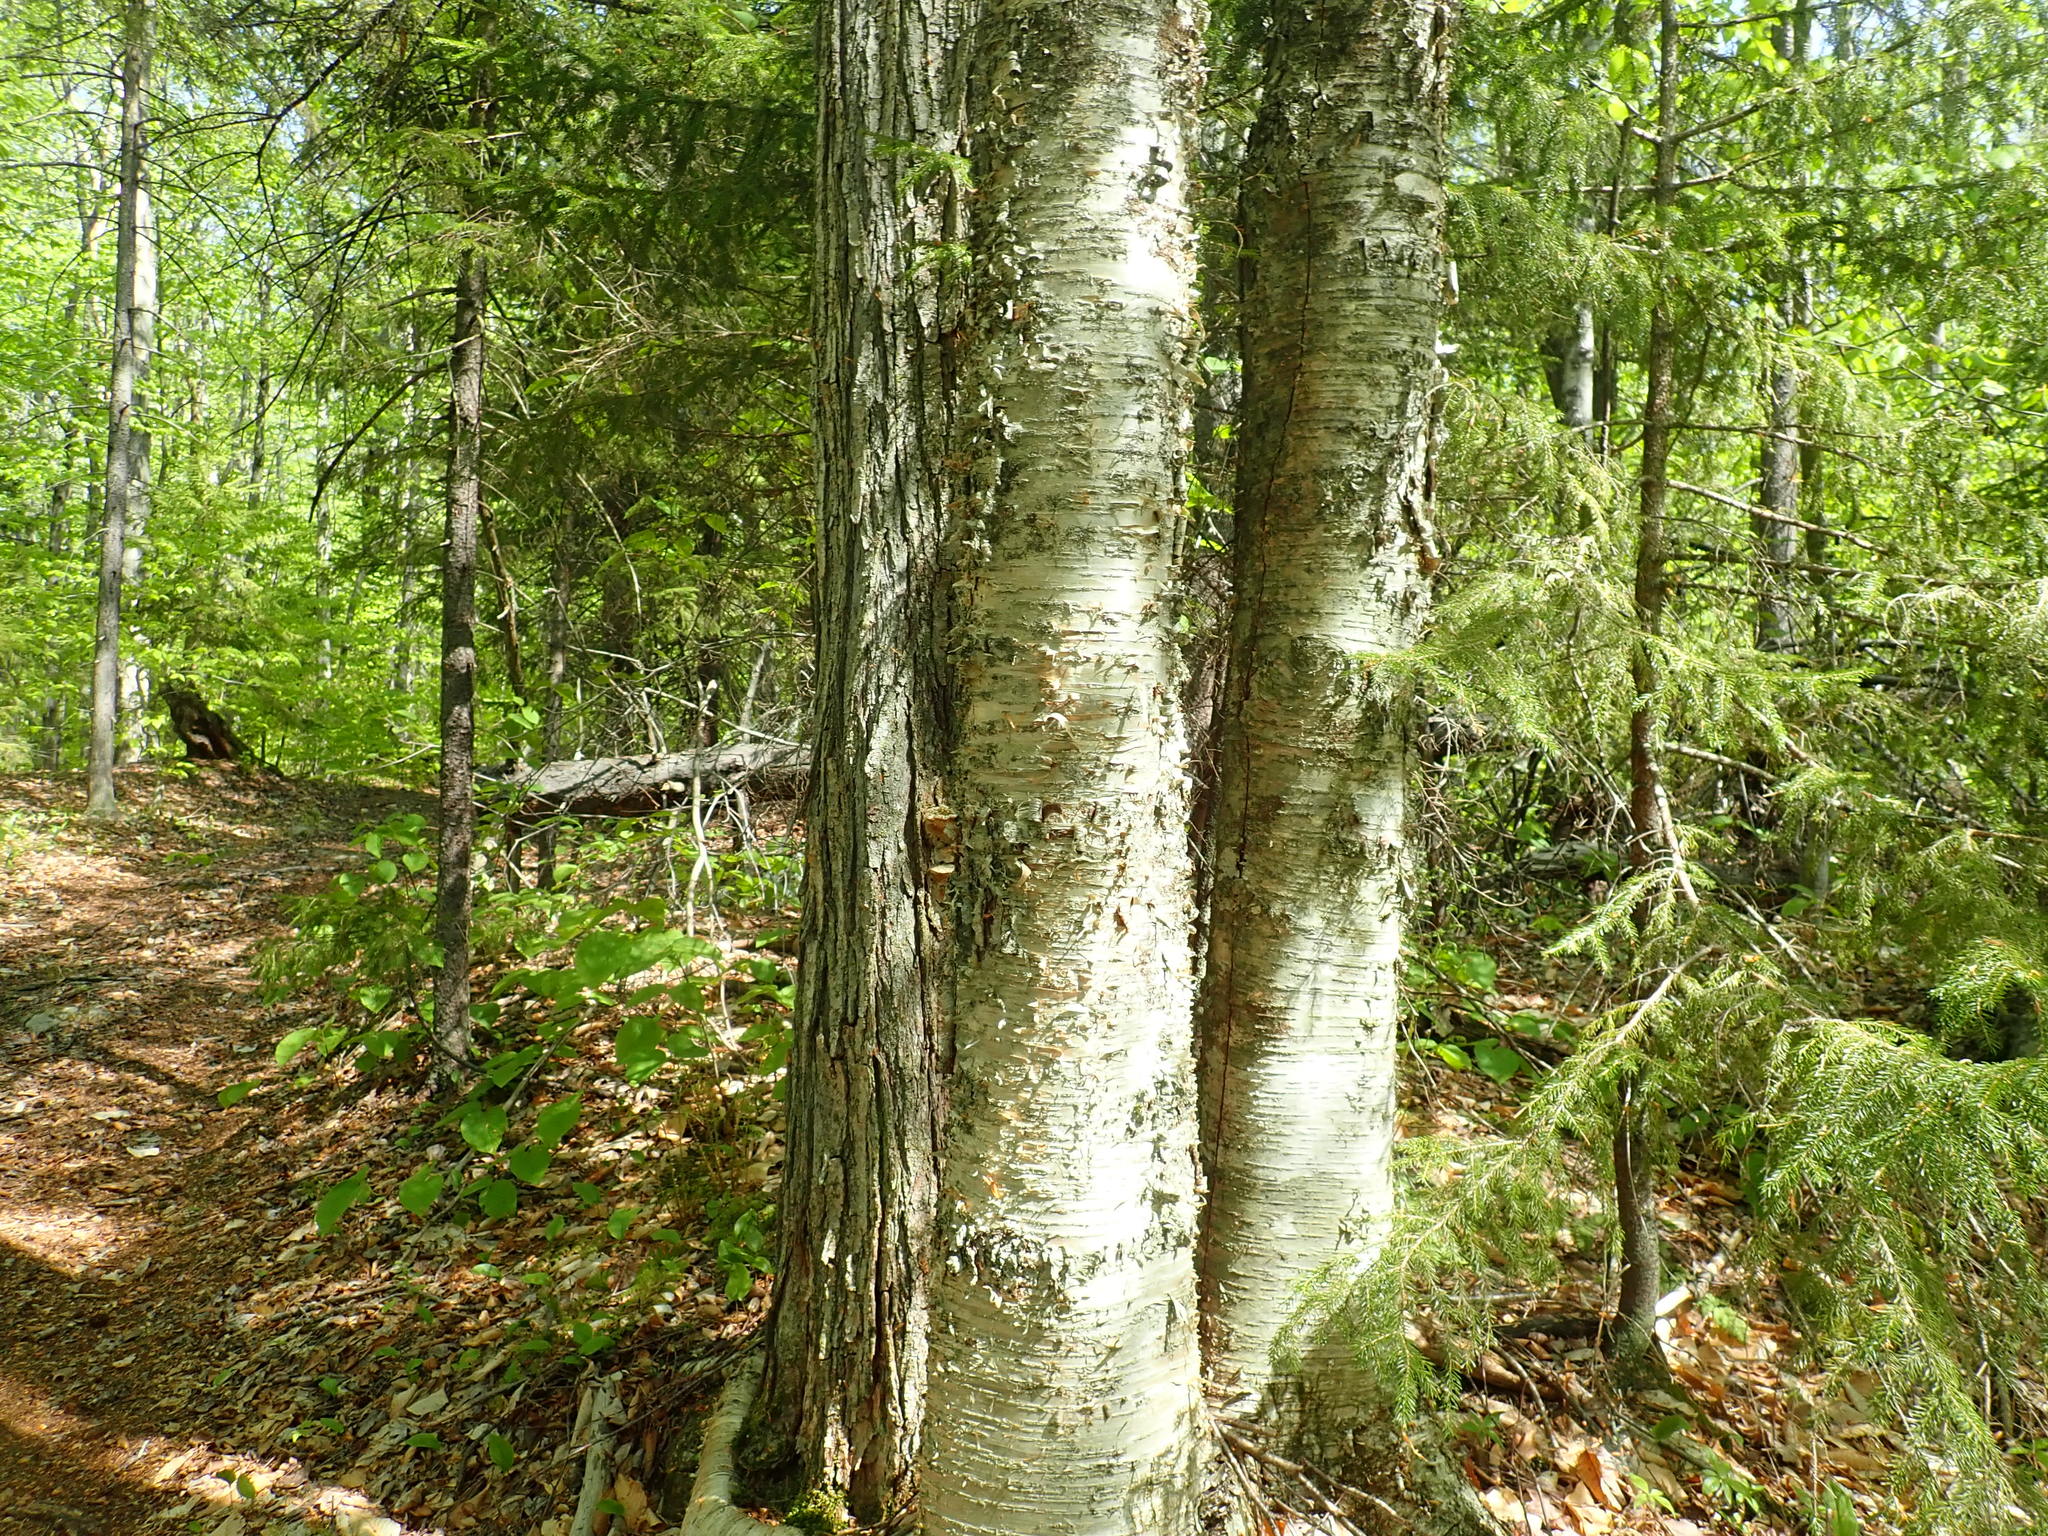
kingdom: Plantae
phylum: Tracheophyta
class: Magnoliopsida
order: Fagales
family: Betulaceae
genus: Betula
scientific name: Betula alleghaniensis
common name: Yellow birch
